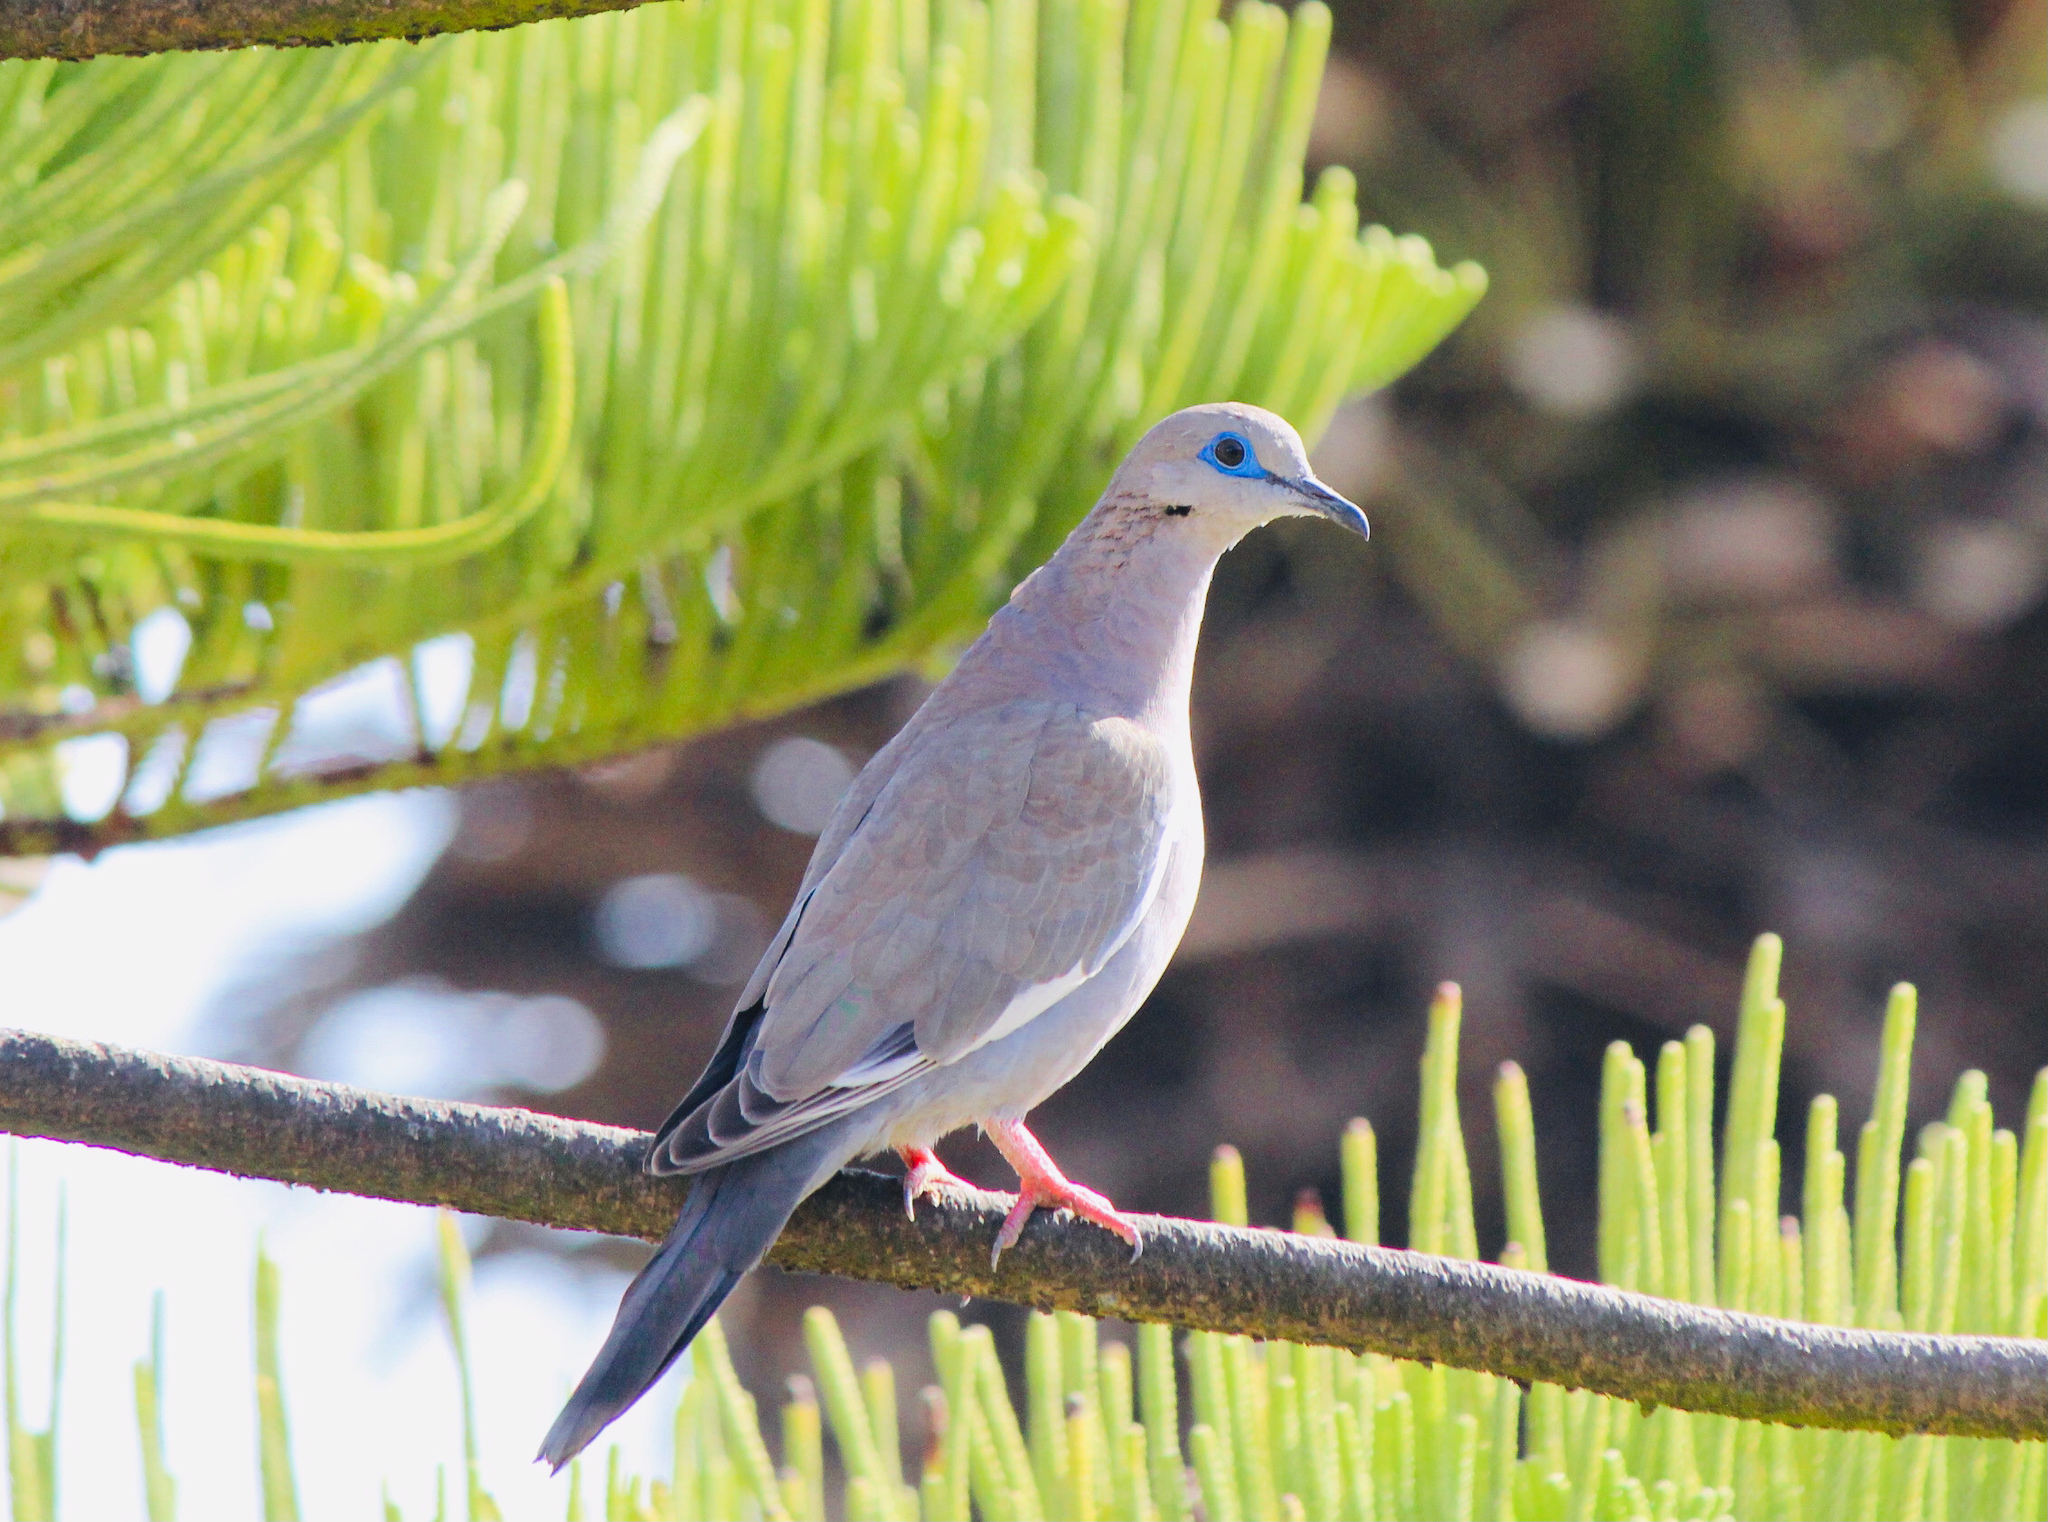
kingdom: Animalia
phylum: Chordata
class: Aves
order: Columbiformes
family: Columbidae
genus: Zenaida
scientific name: Zenaida meloda
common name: West peruvian dove
